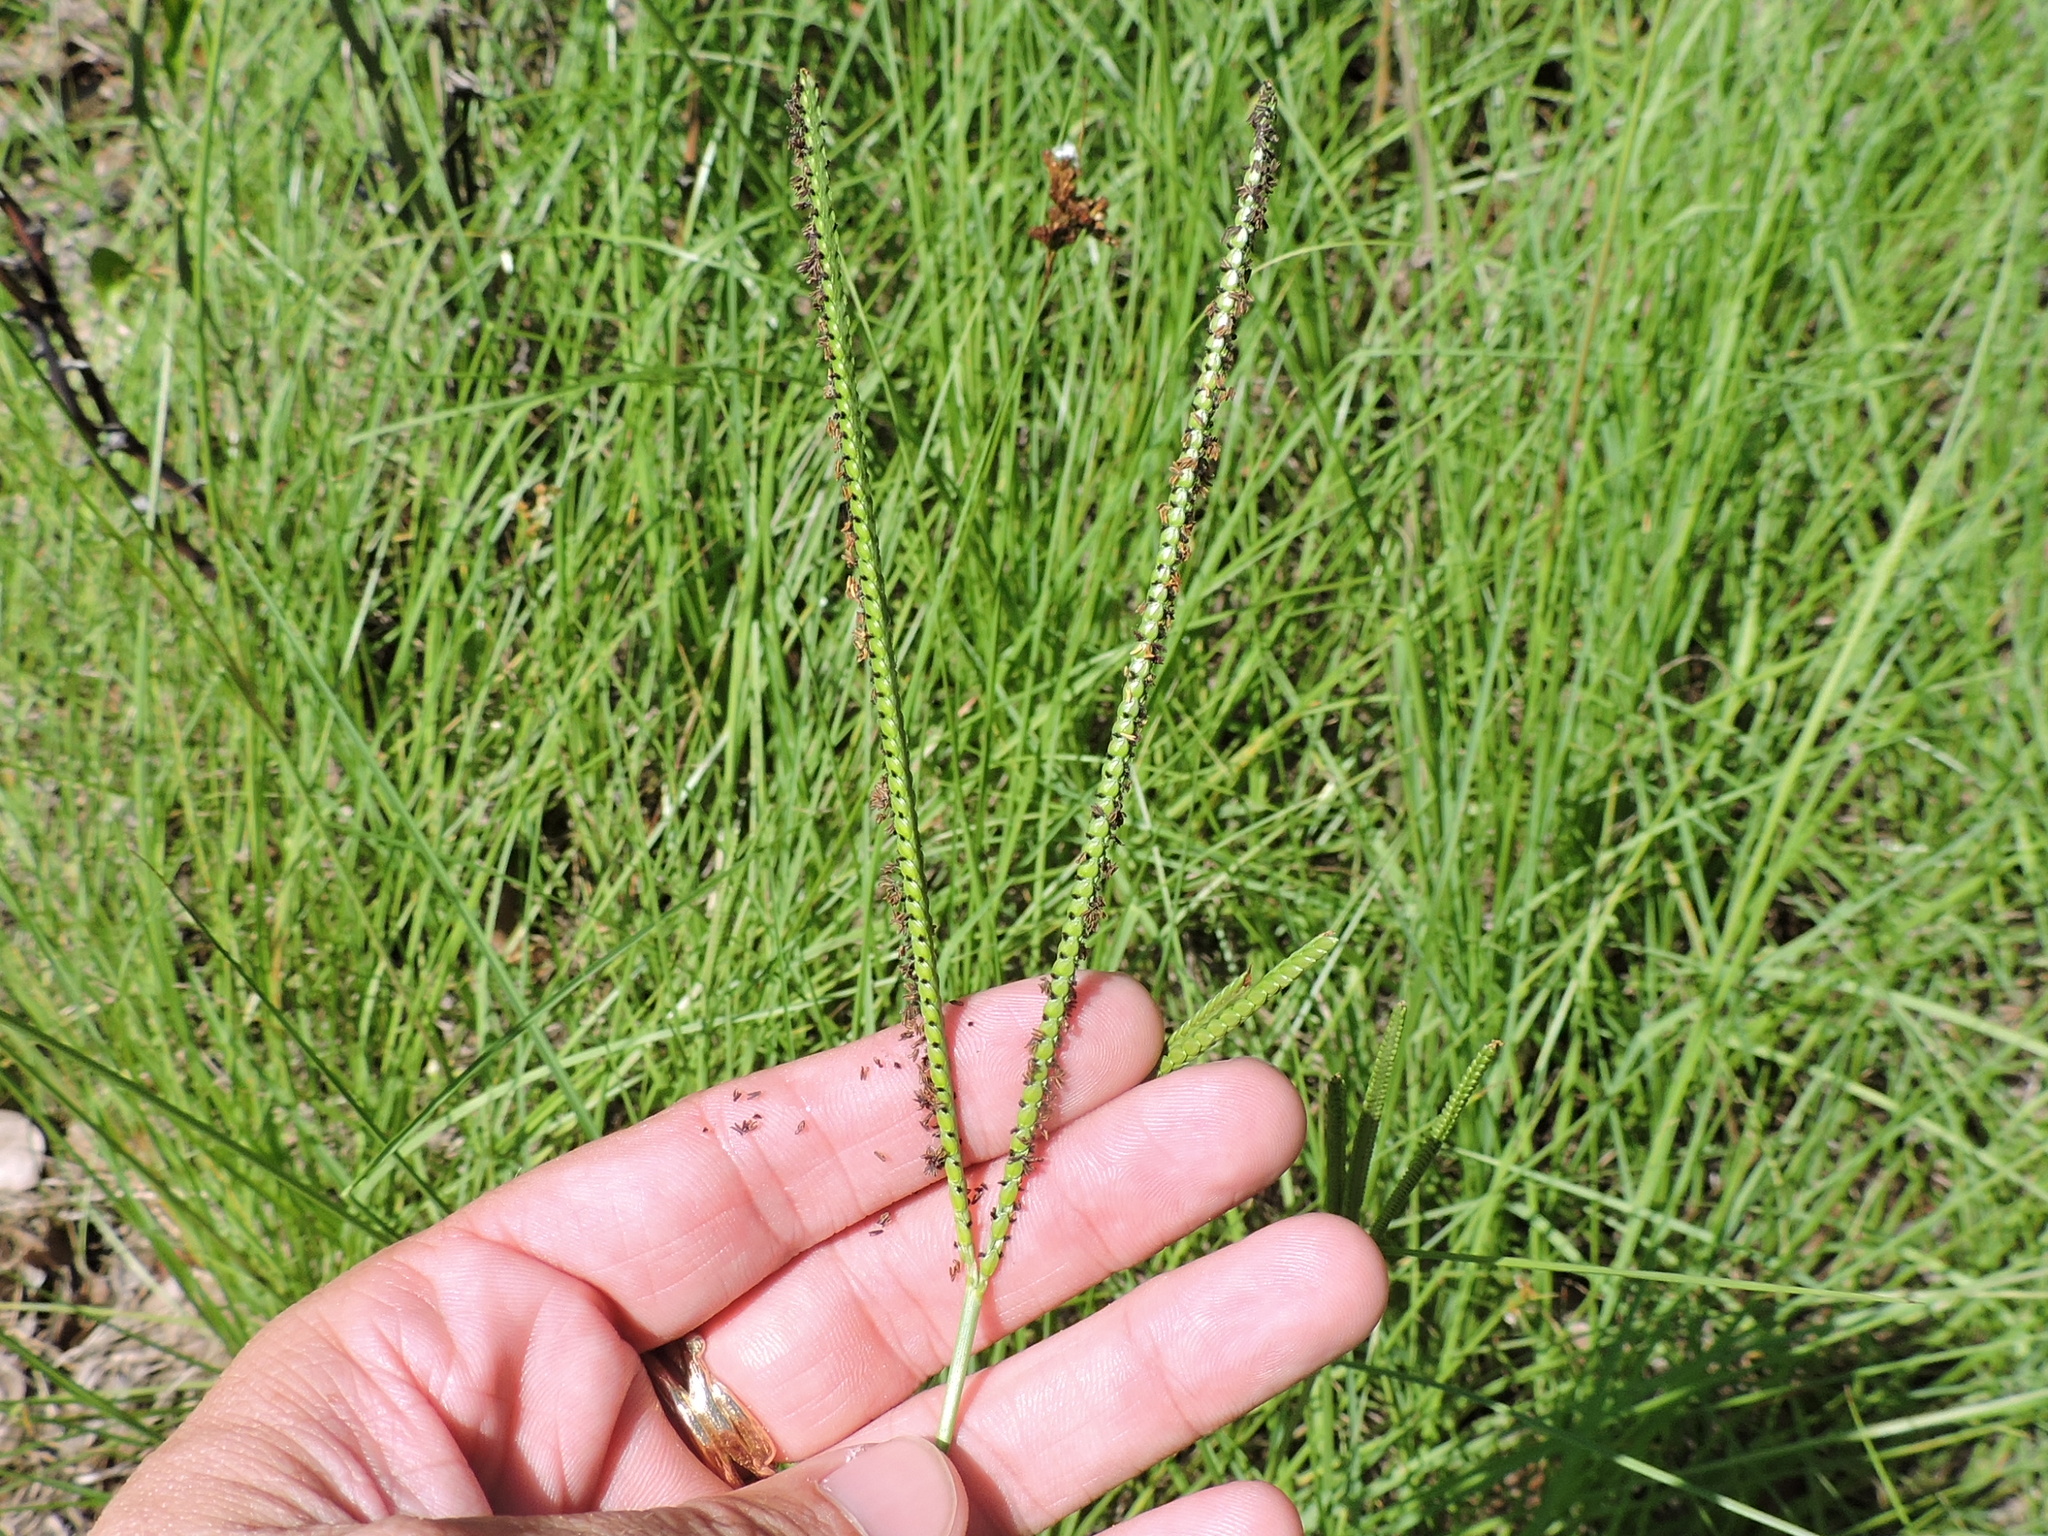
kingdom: Plantae
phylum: Tracheophyta
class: Liliopsida
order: Poales
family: Poaceae
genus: Paspalum
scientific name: Paspalum notatum
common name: Bahiagrass
